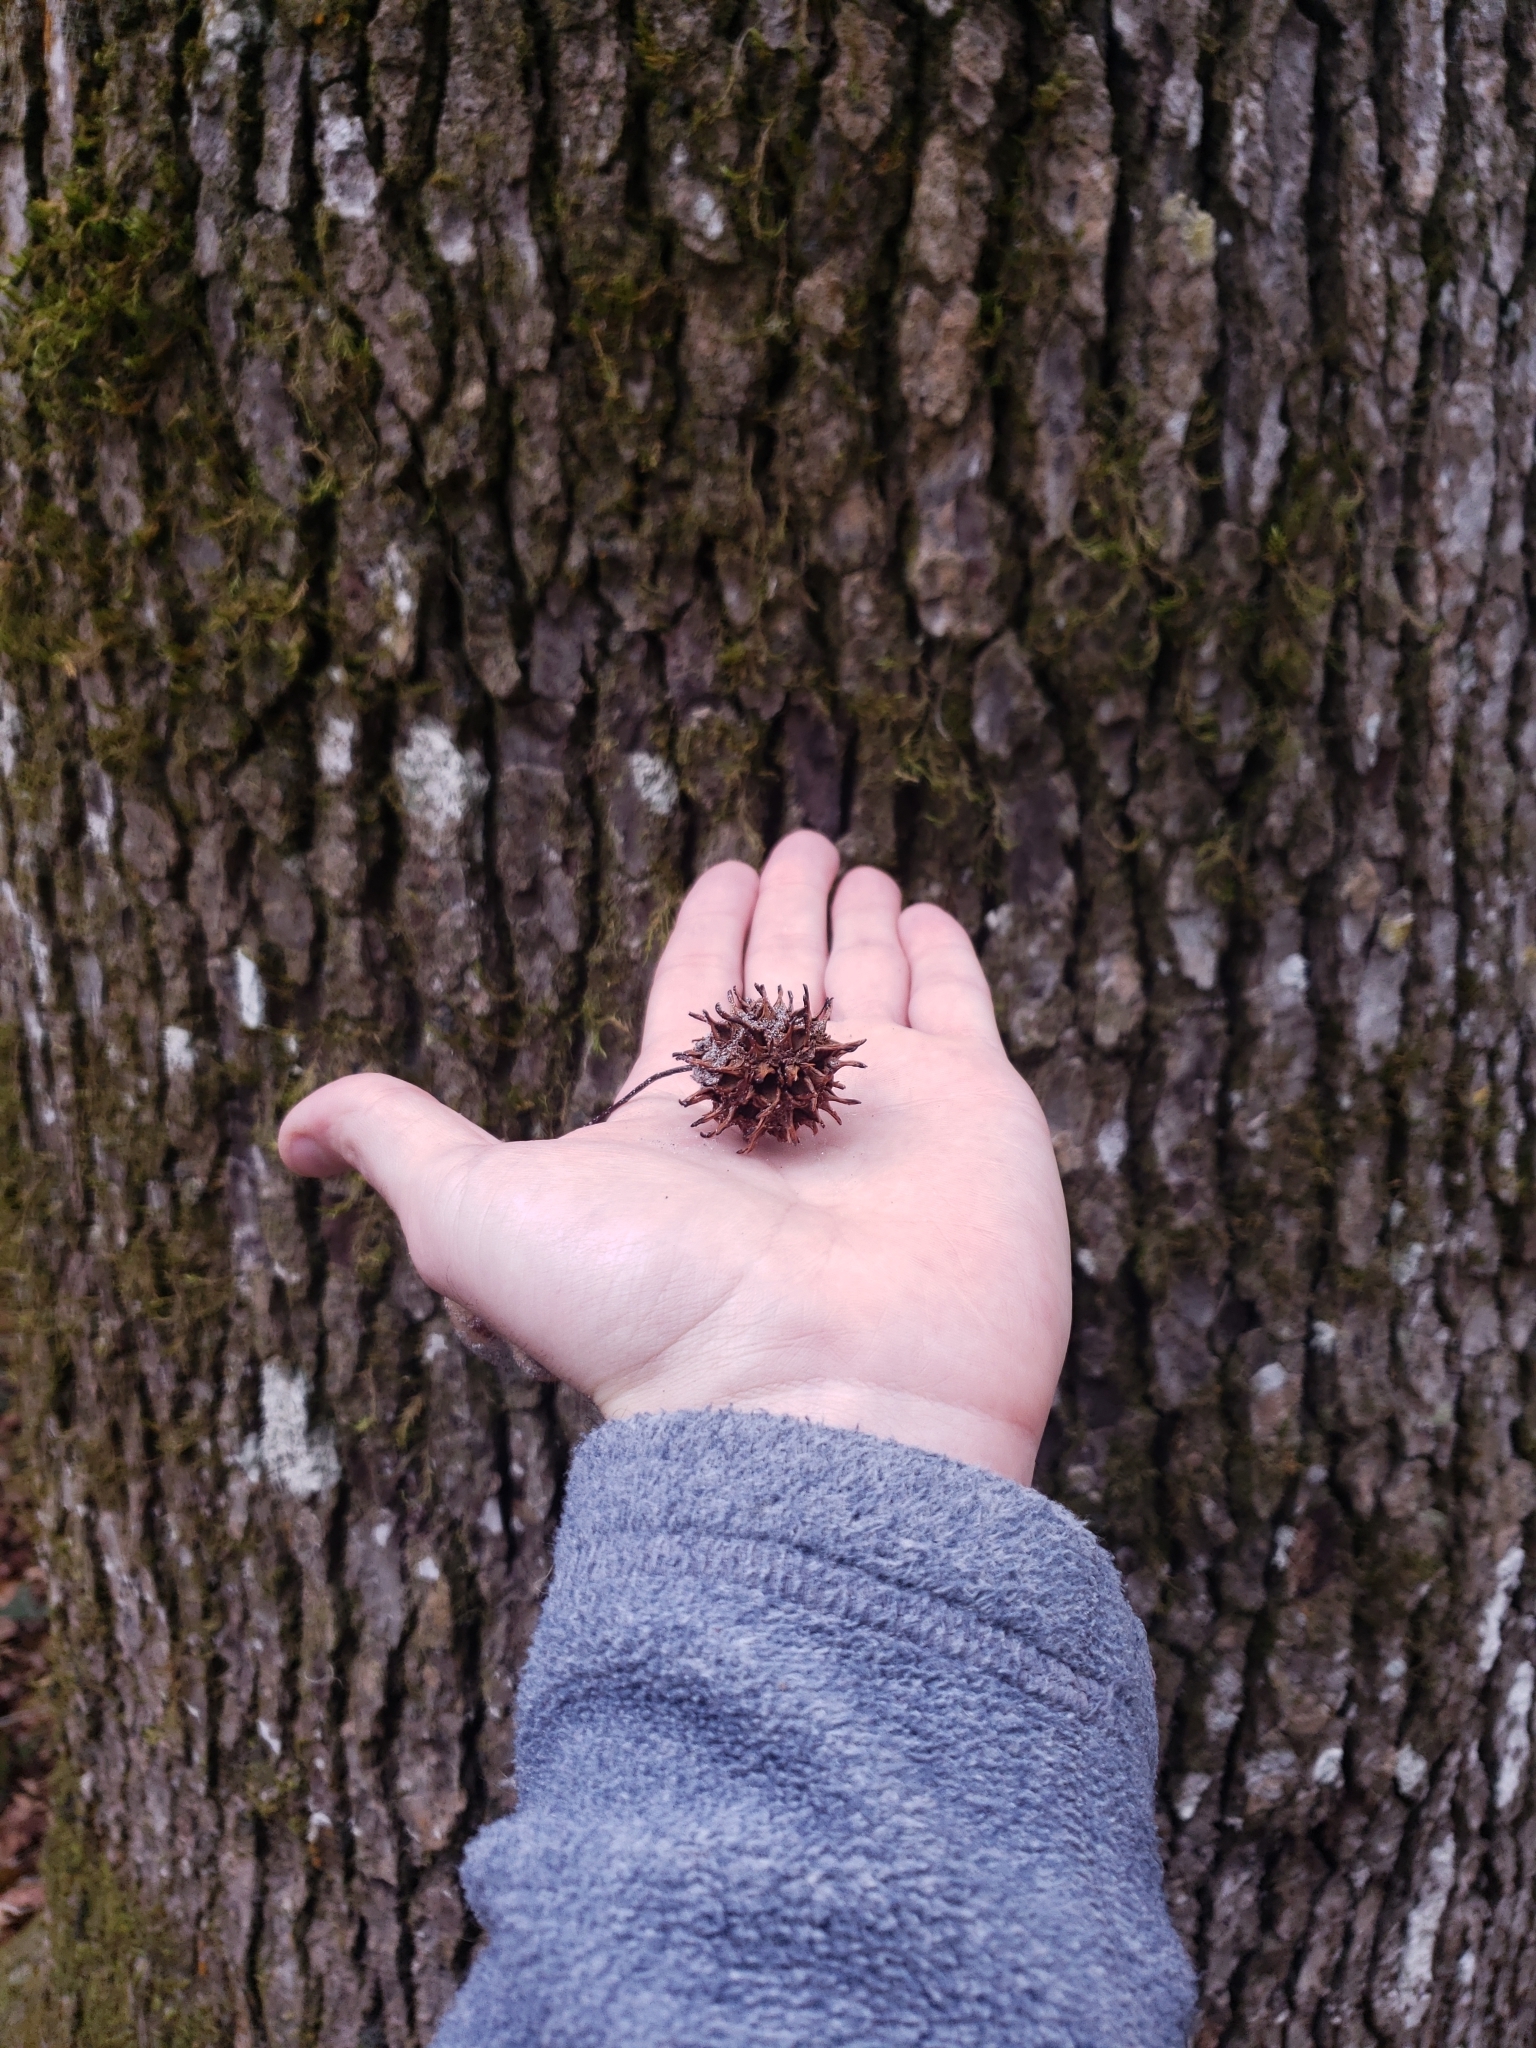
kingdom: Plantae
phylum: Tracheophyta
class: Magnoliopsida
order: Saxifragales
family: Altingiaceae
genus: Liquidambar
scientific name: Liquidambar styraciflua
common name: Sweet gum
